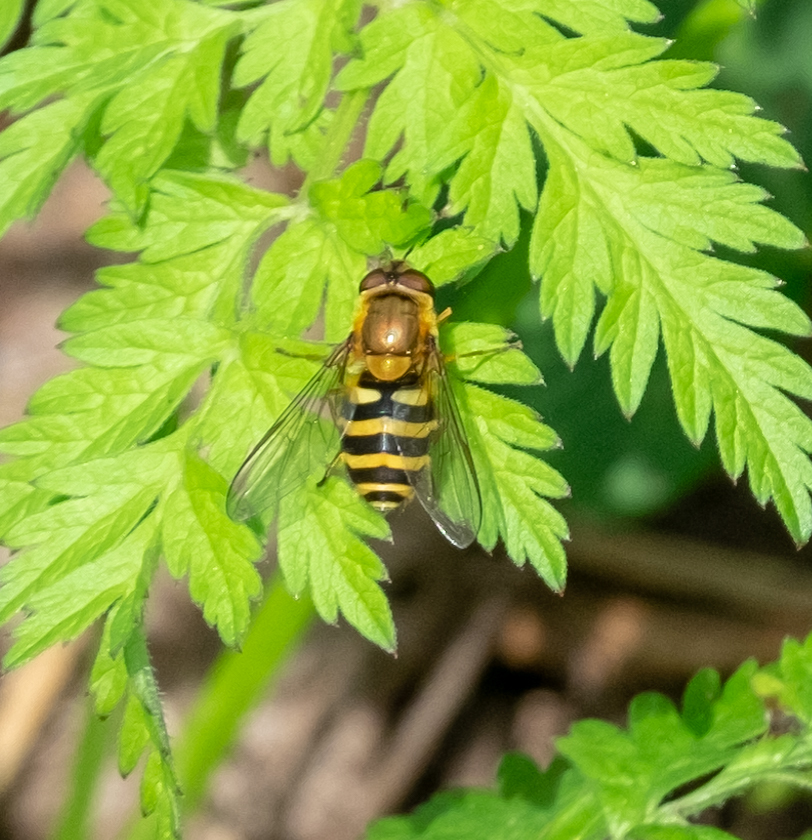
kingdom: Animalia
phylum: Arthropoda
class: Insecta
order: Diptera
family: Syrphidae
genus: Syrphus
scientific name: Syrphus
